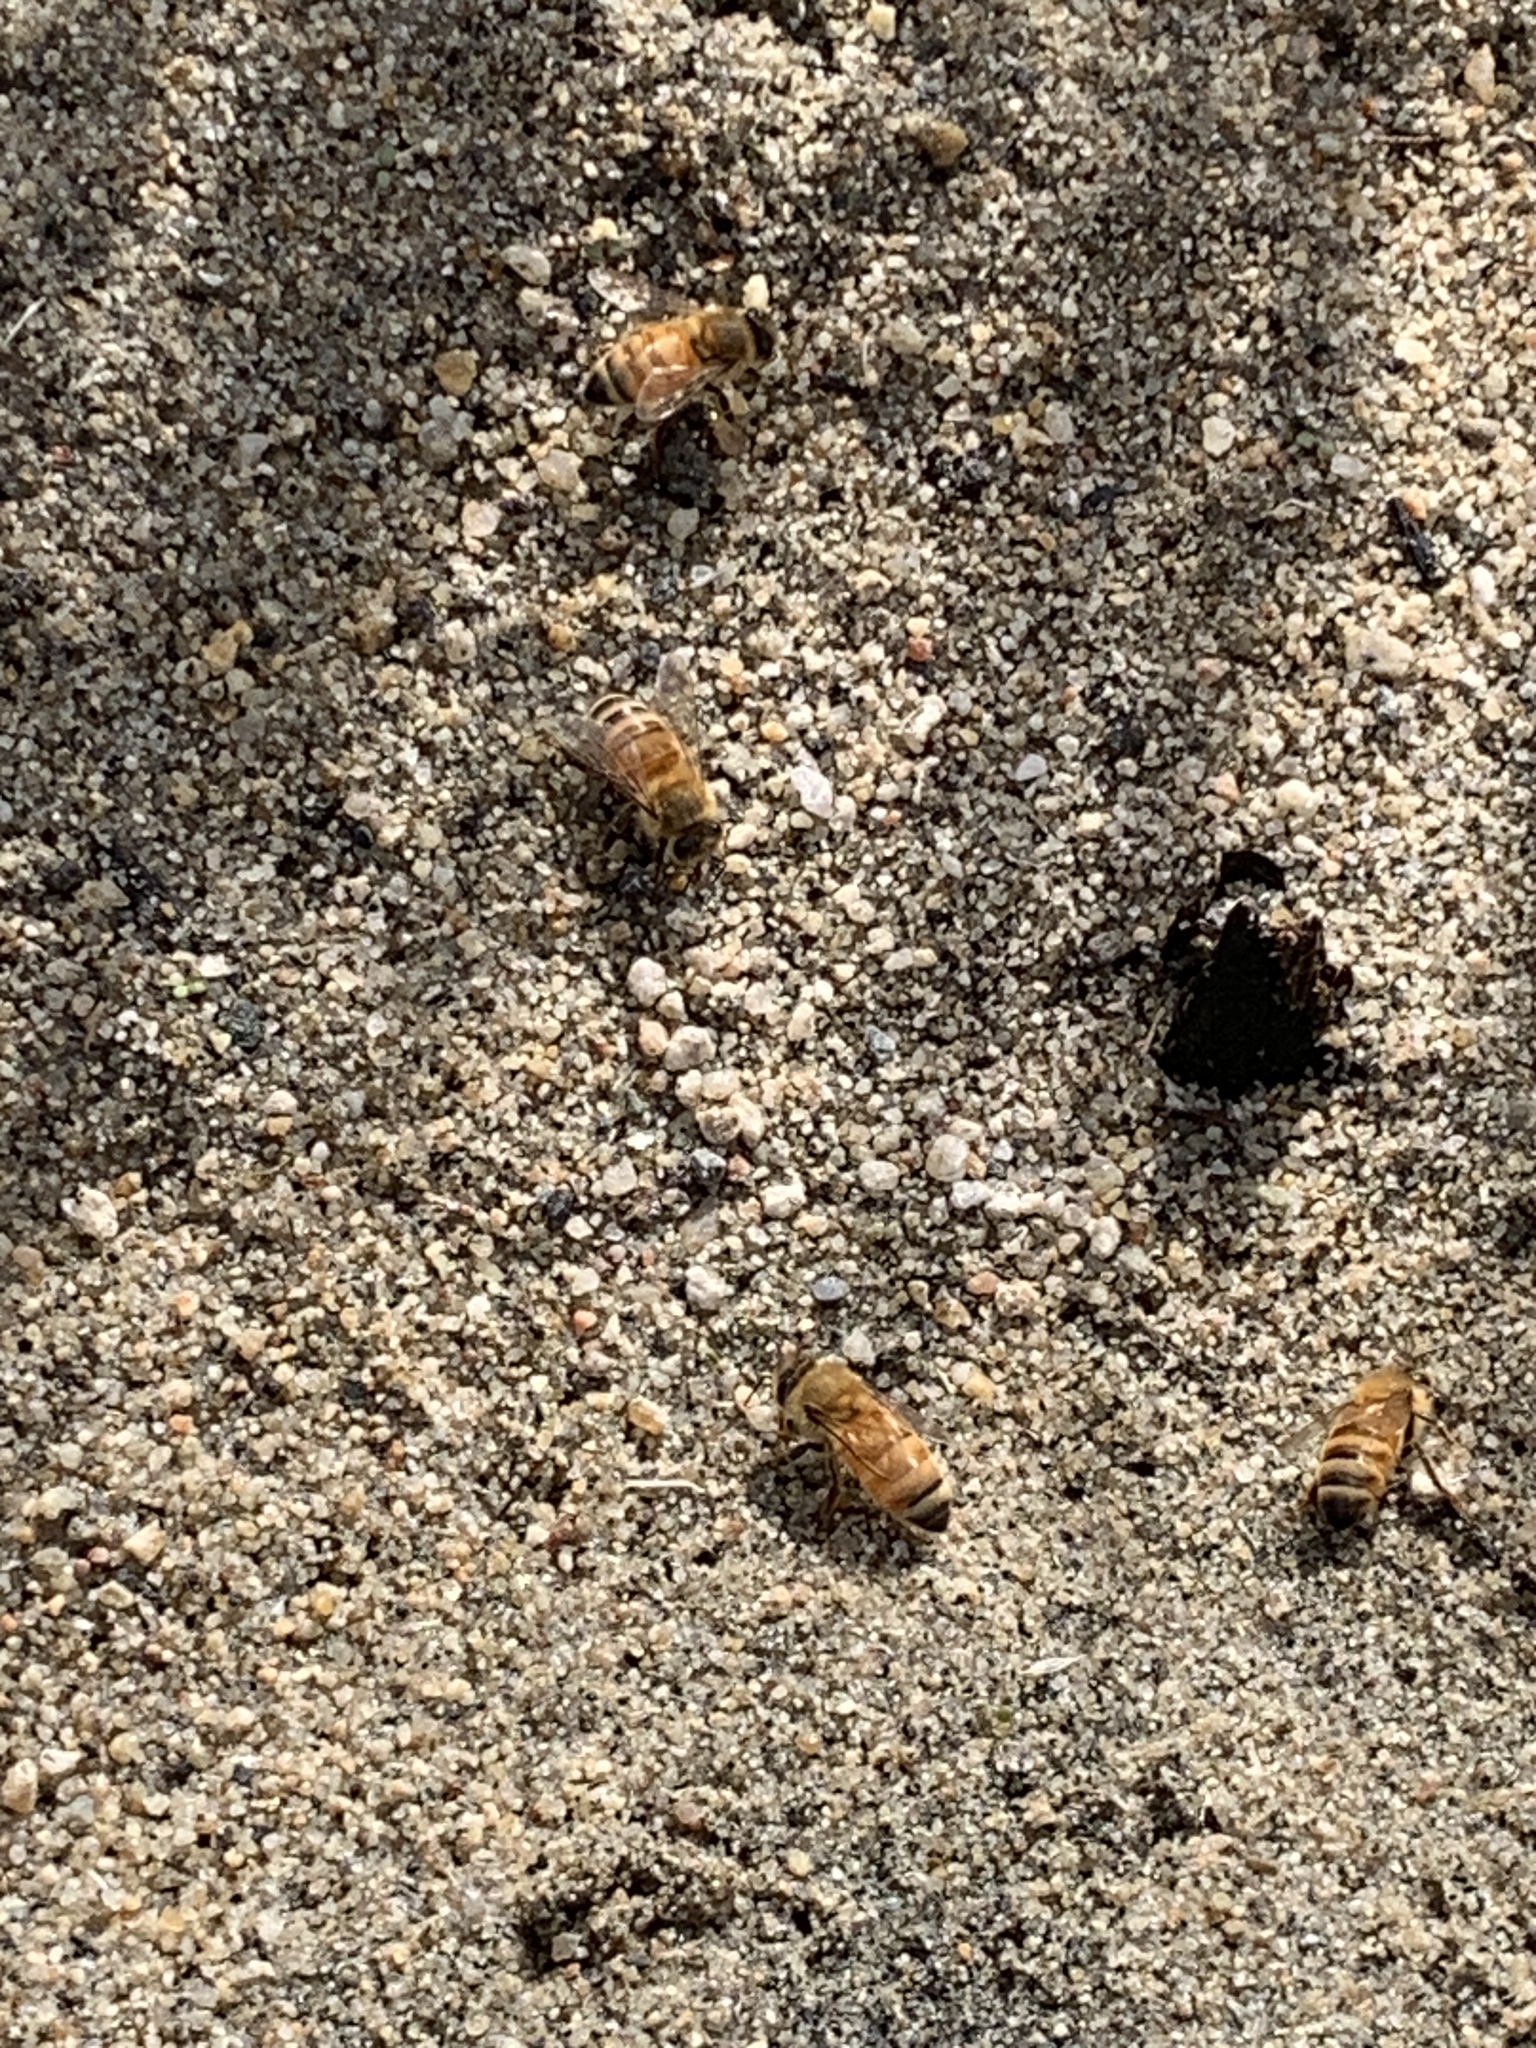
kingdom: Animalia
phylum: Arthropoda
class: Insecta
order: Hymenoptera
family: Apidae
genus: Apis
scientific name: Apis mellifera
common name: Honey bee
